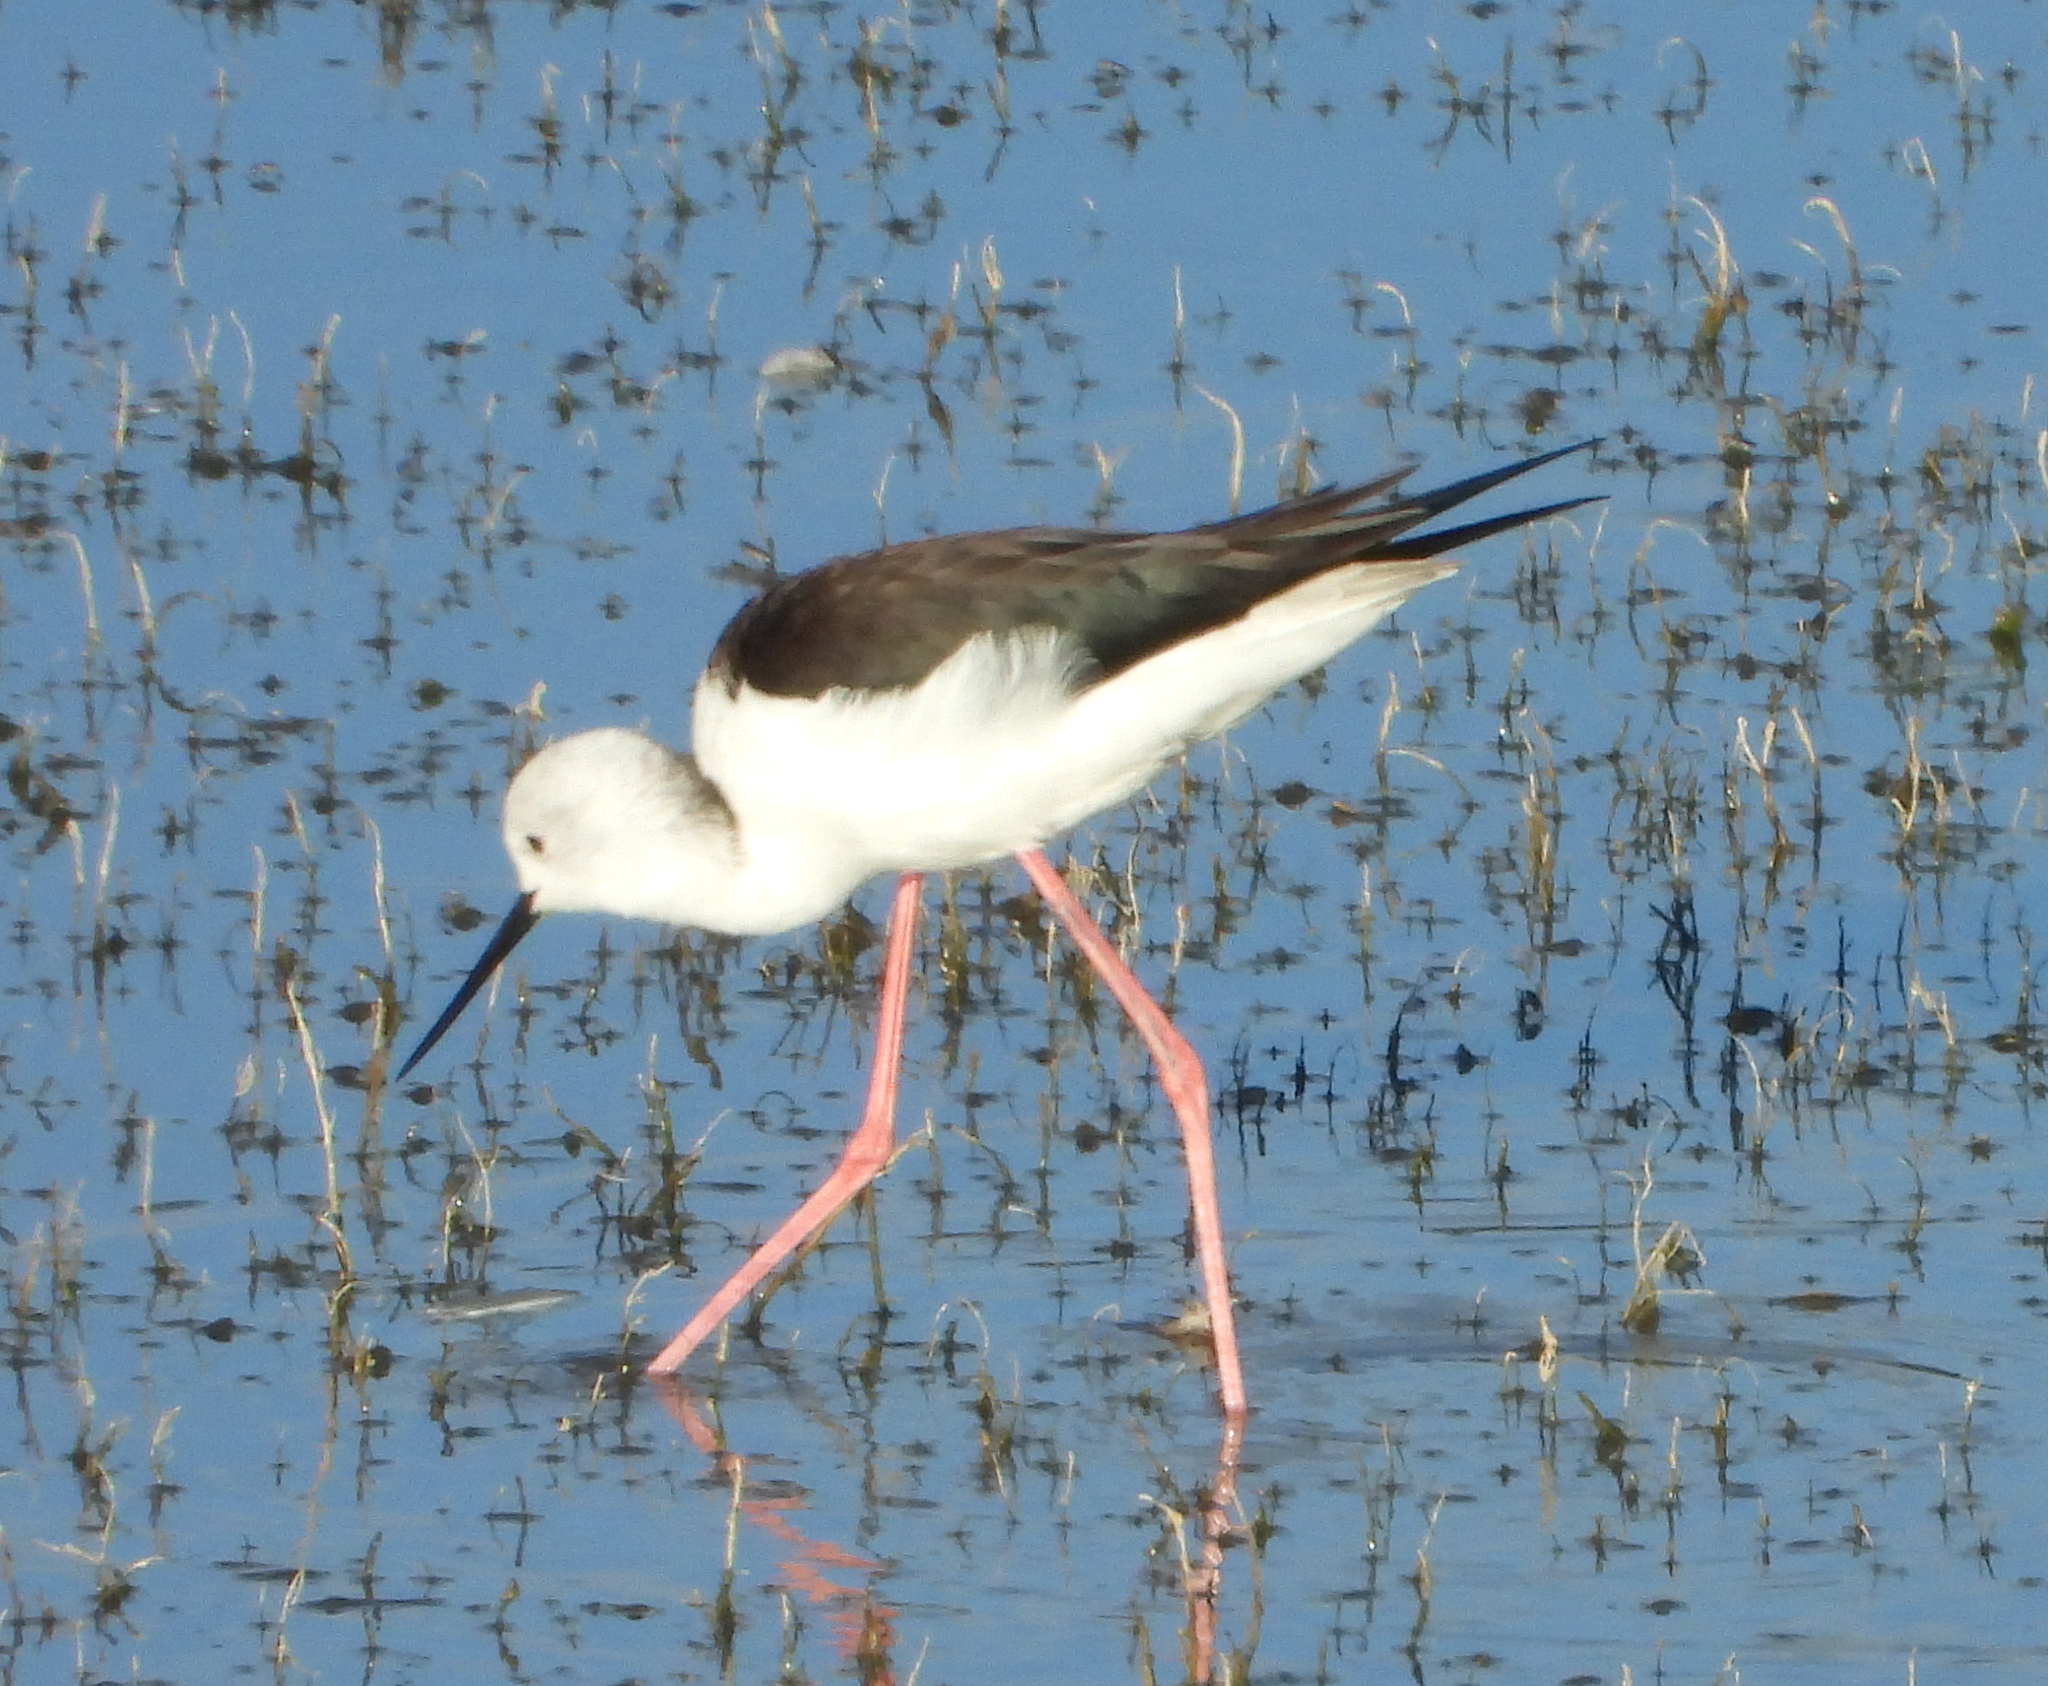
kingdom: Animalia
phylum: Chordata
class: Aves
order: Charadriiformes
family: Recurvirostridae
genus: Himantopus
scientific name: Himantopus himantopus
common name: Black-winged stilt
